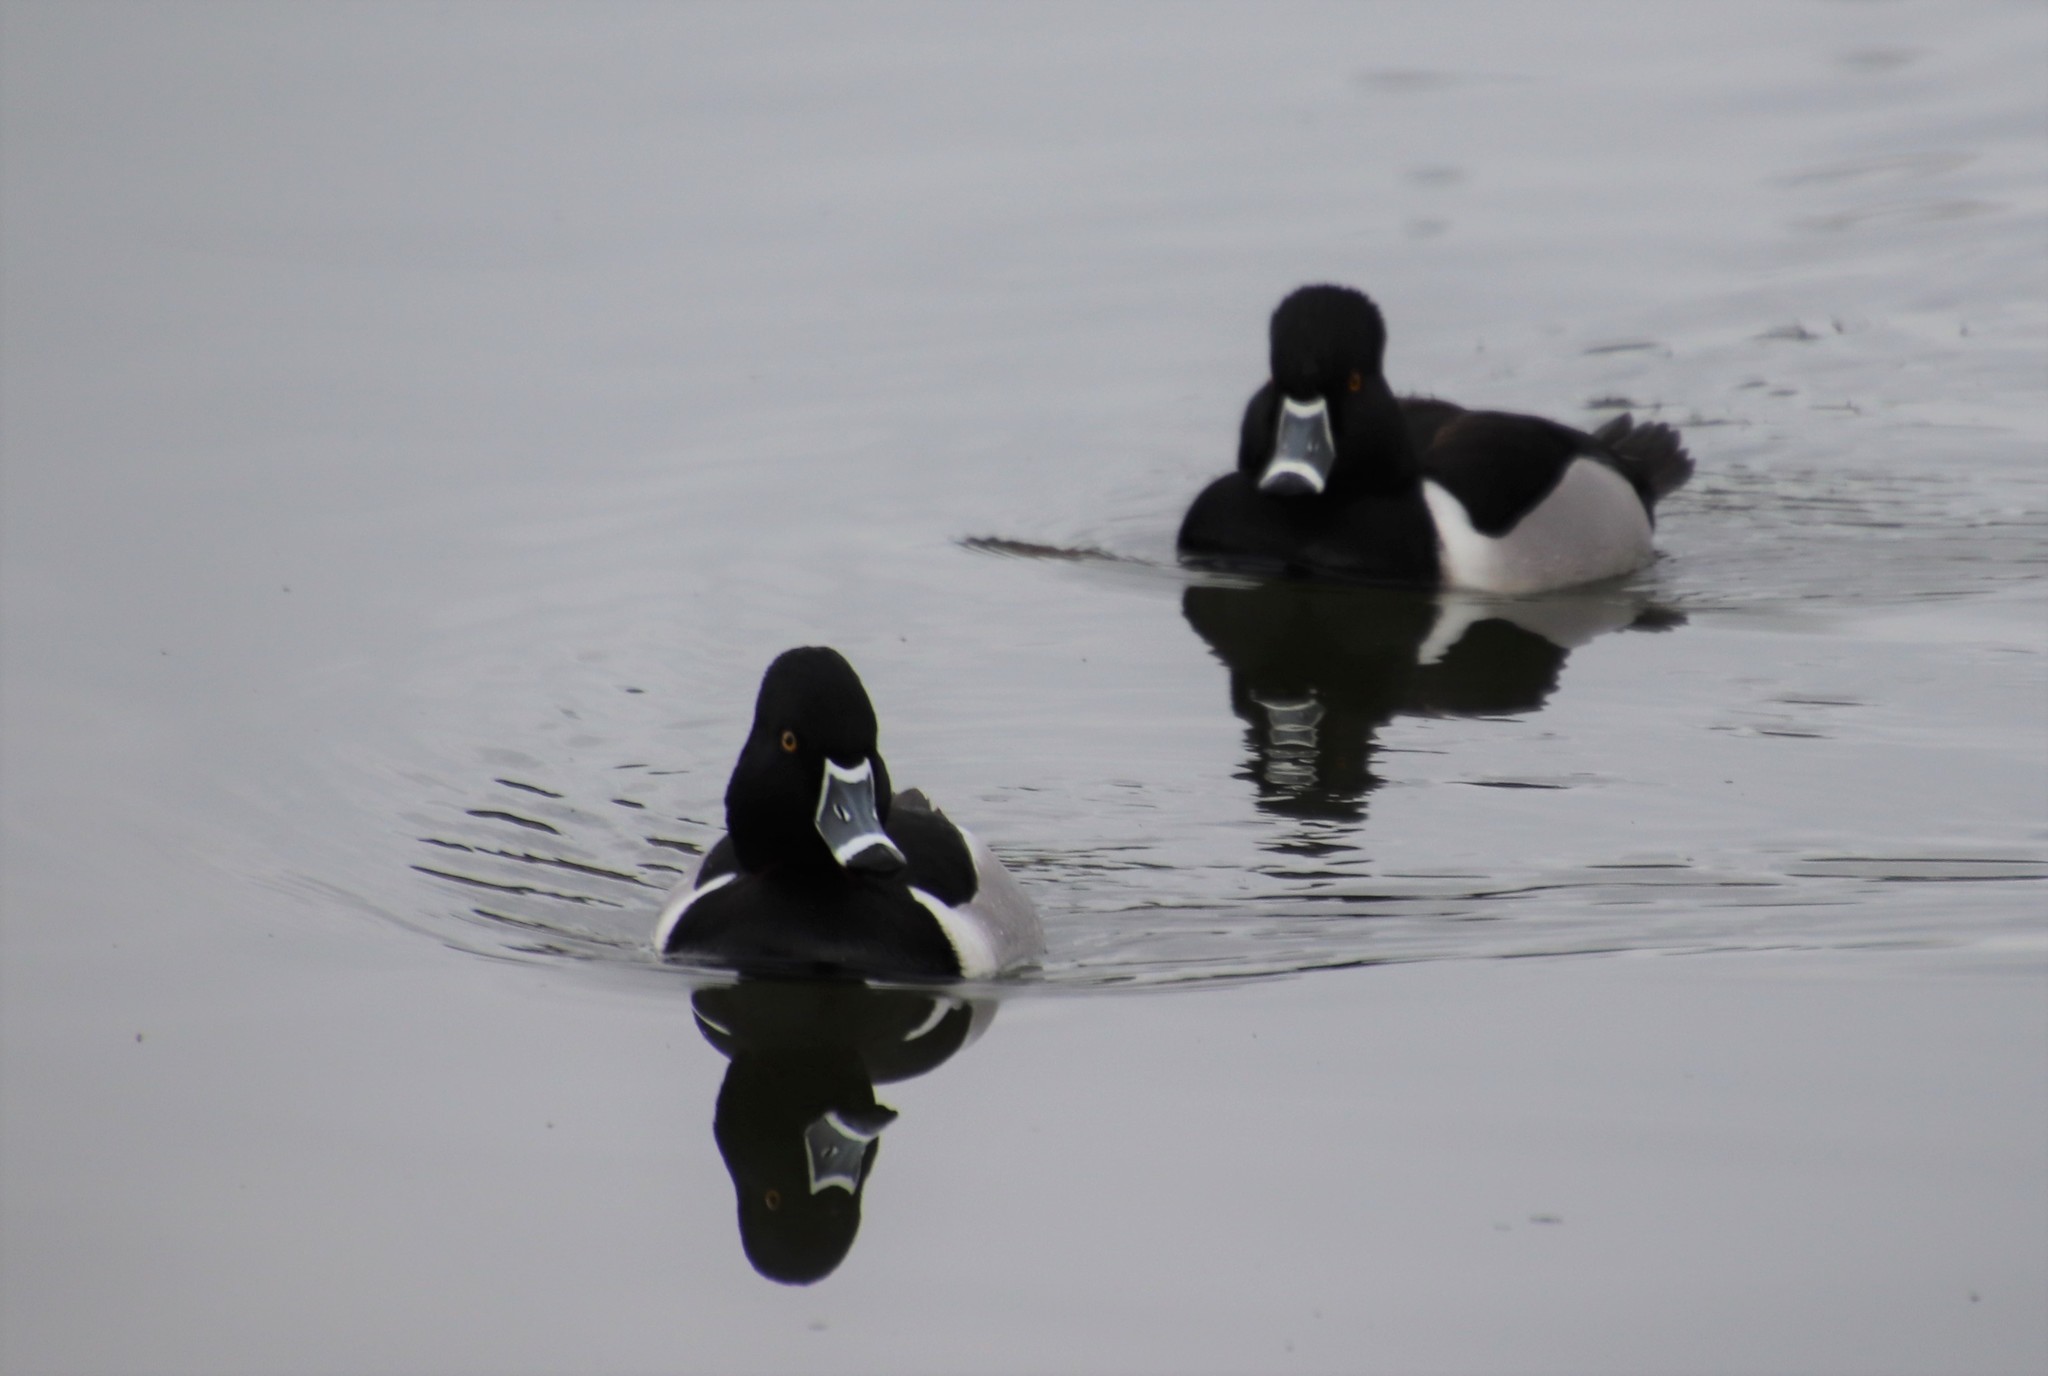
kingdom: Animalia
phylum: Chordata
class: Aves
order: Anseriformes
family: Anatidae
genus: Aythya
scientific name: Aythya collaris
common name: Ring-necked duck
